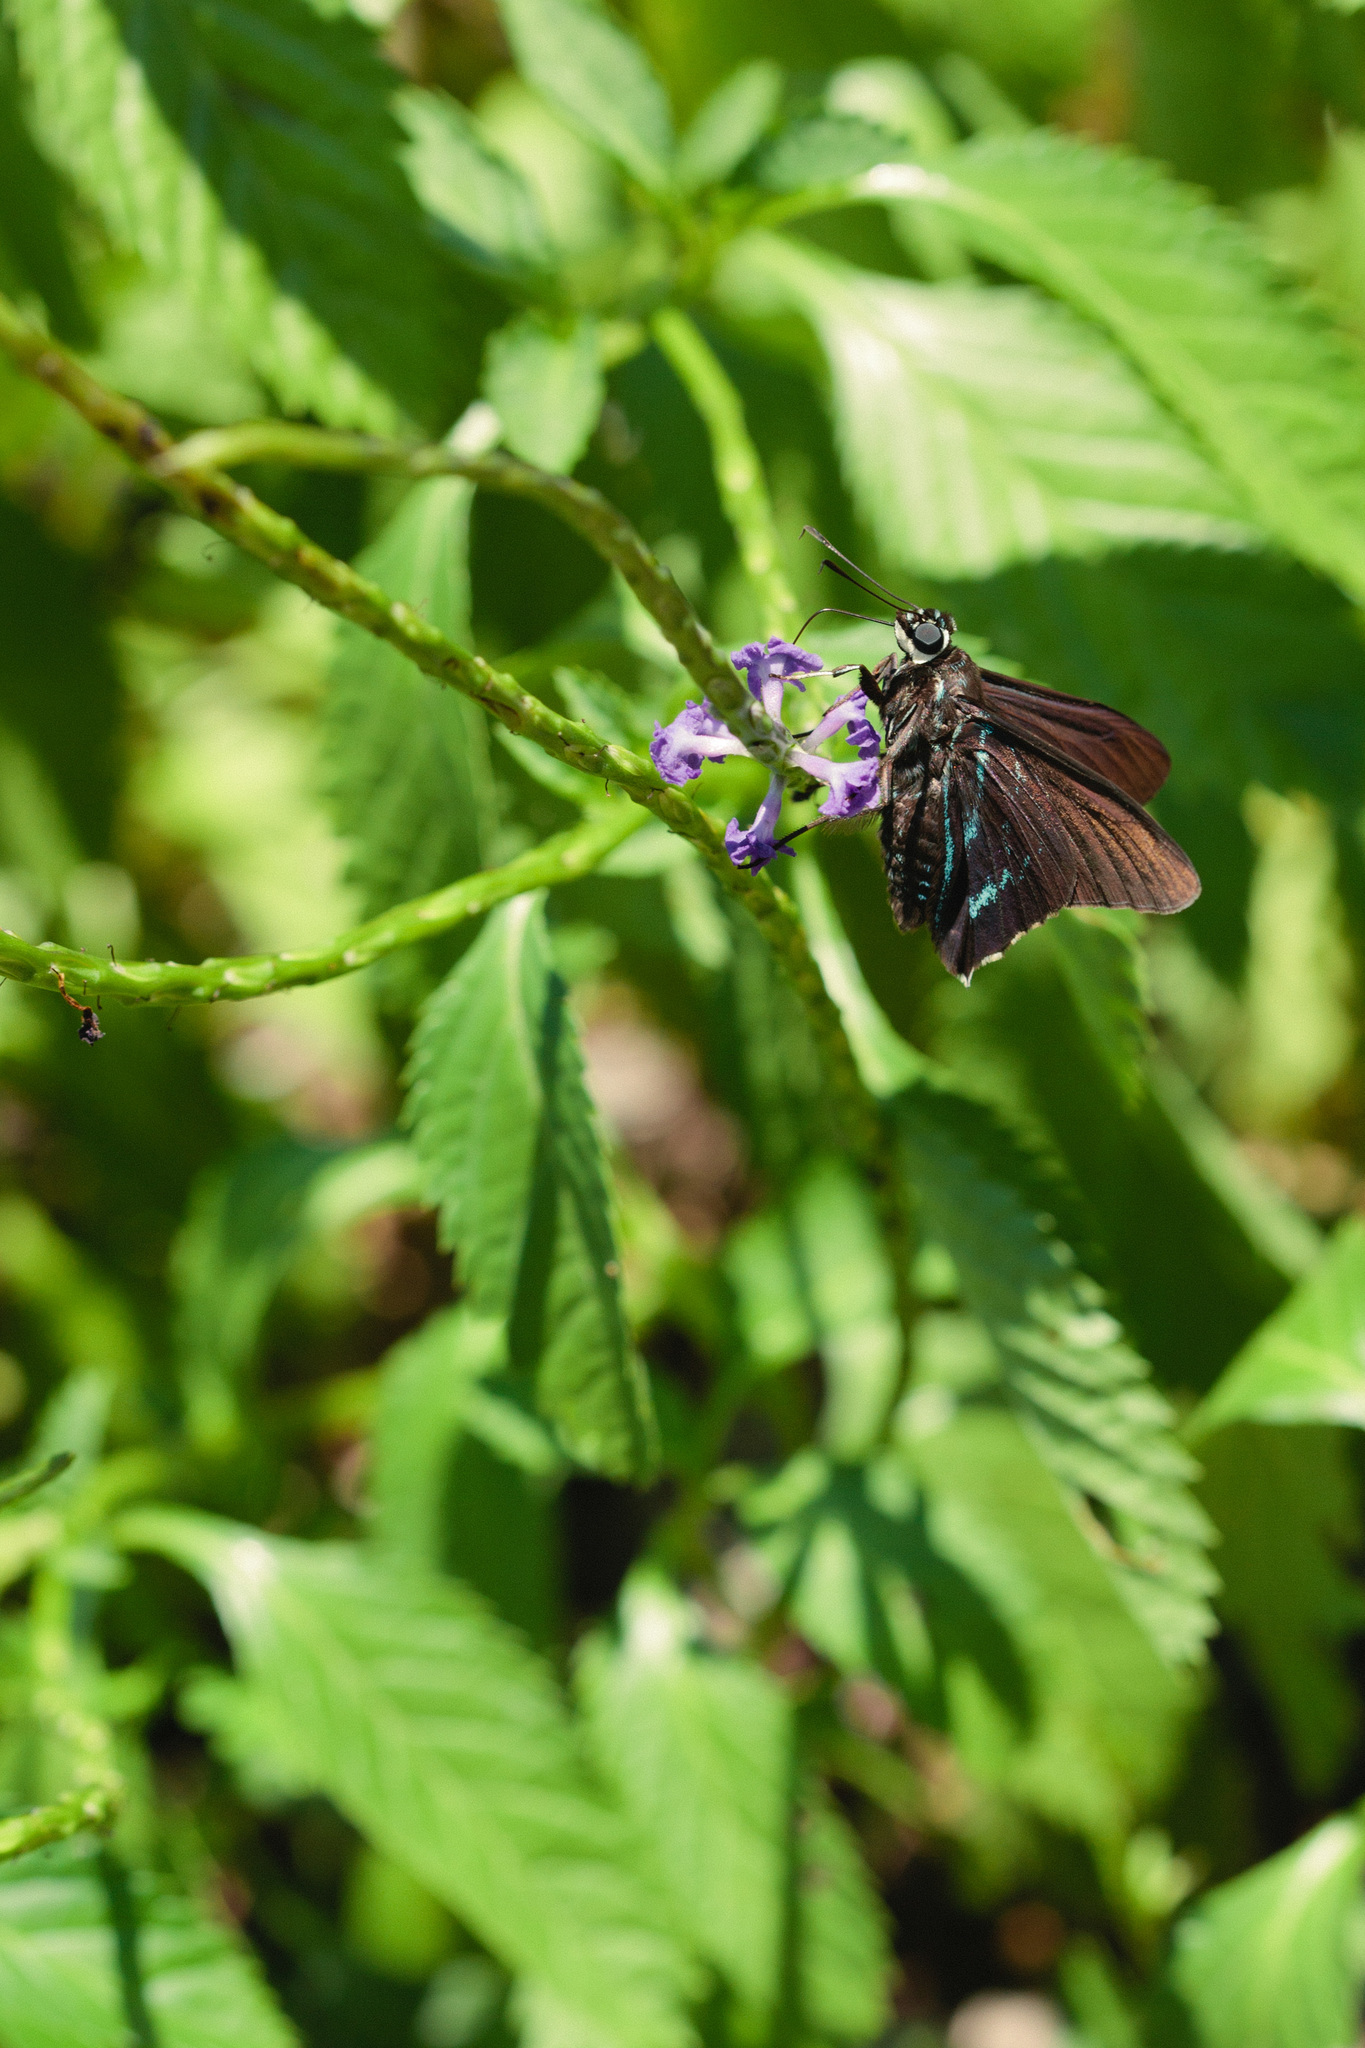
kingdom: Animalia
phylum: Arthropoda
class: Insecta
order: Lepidoptera
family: Hesperiidae
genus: Phocides
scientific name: Phocides pigmalion
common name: Mangrove skipper
